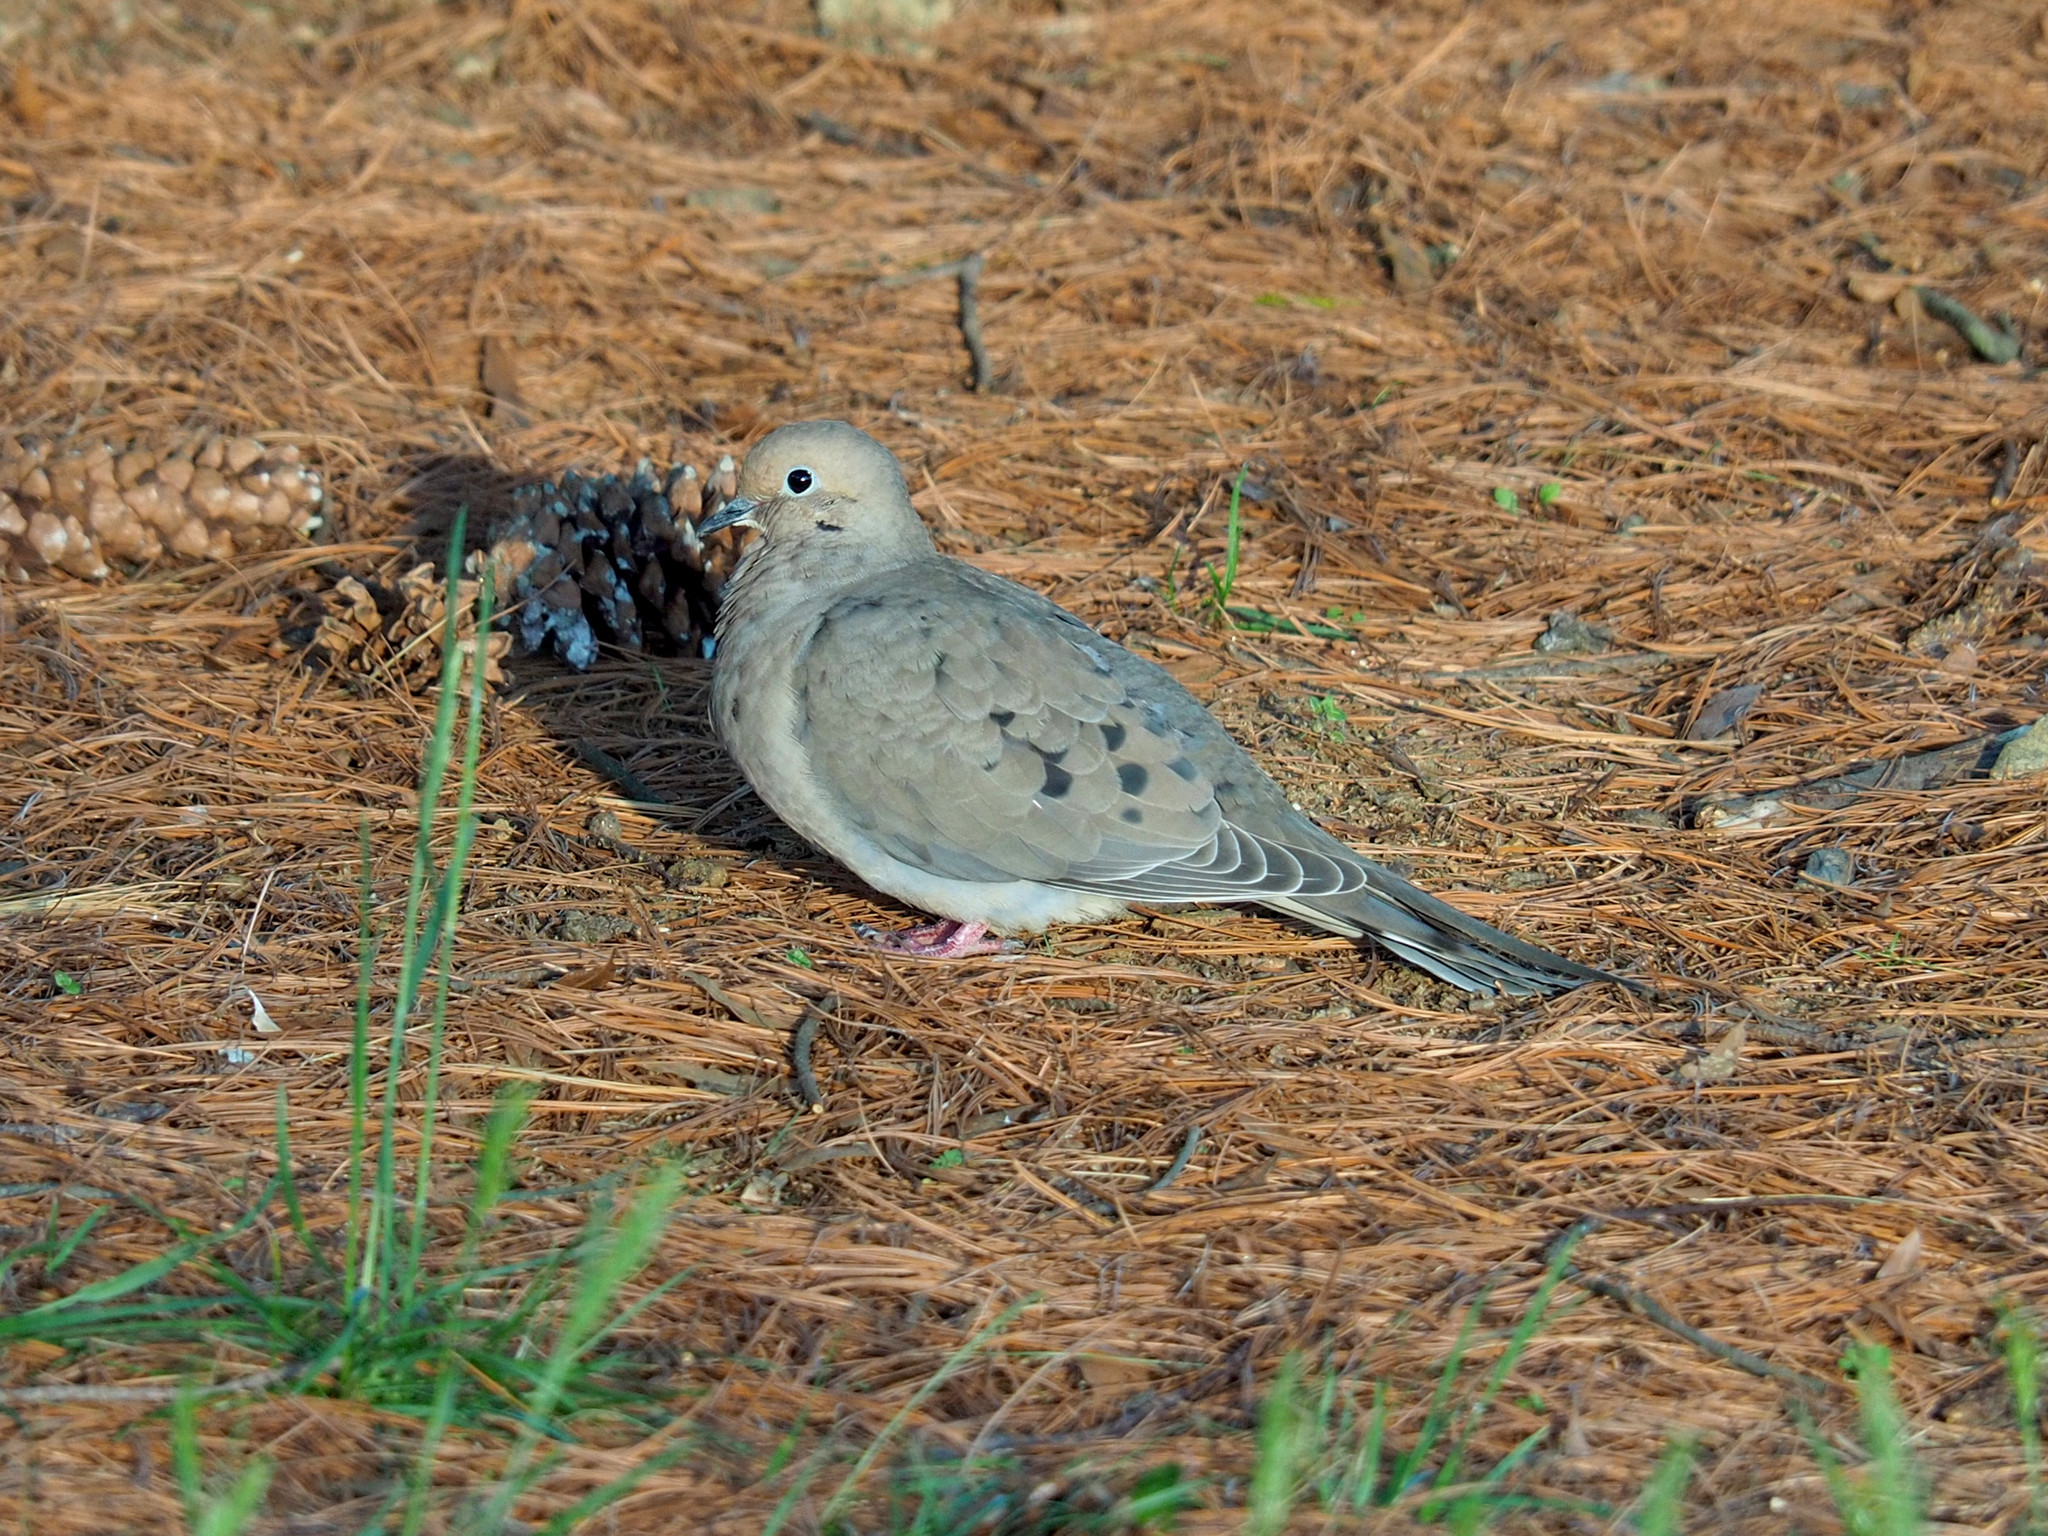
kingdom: Animalia
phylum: Chordata
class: Aves
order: Columbiformes
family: Columbidae
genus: Zenaida
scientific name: Zenaida macroura
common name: Mourning dove
